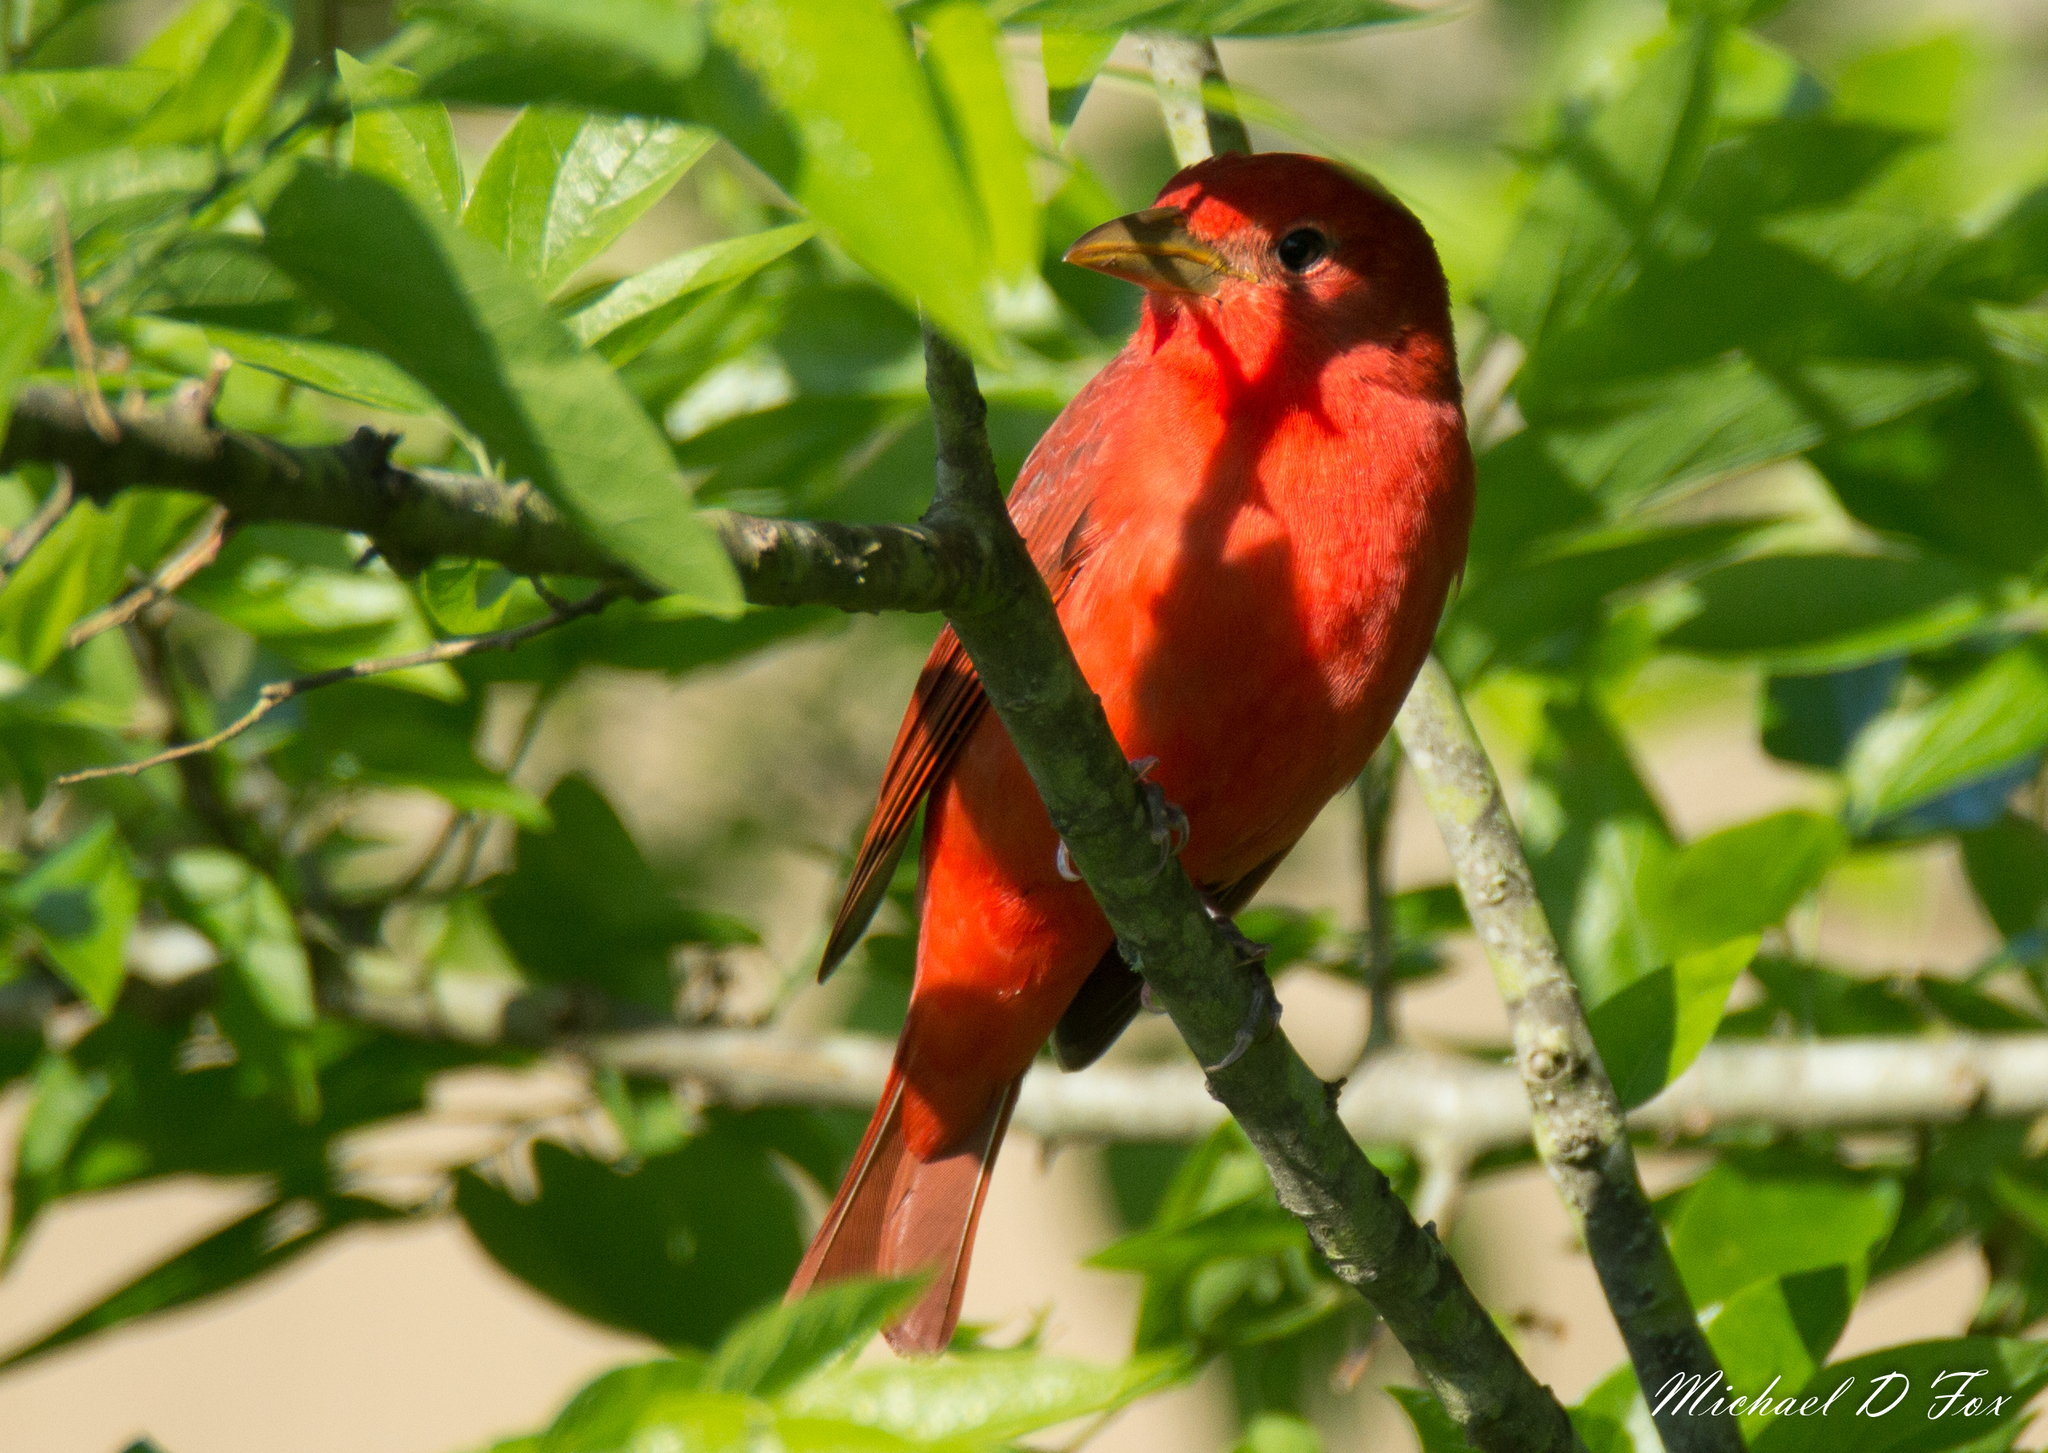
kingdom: Animalia
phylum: Chordata
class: Aves
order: Passeriformes
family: Cardinalidae
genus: Piranga
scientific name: Piranga rubra
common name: Summer tanager
